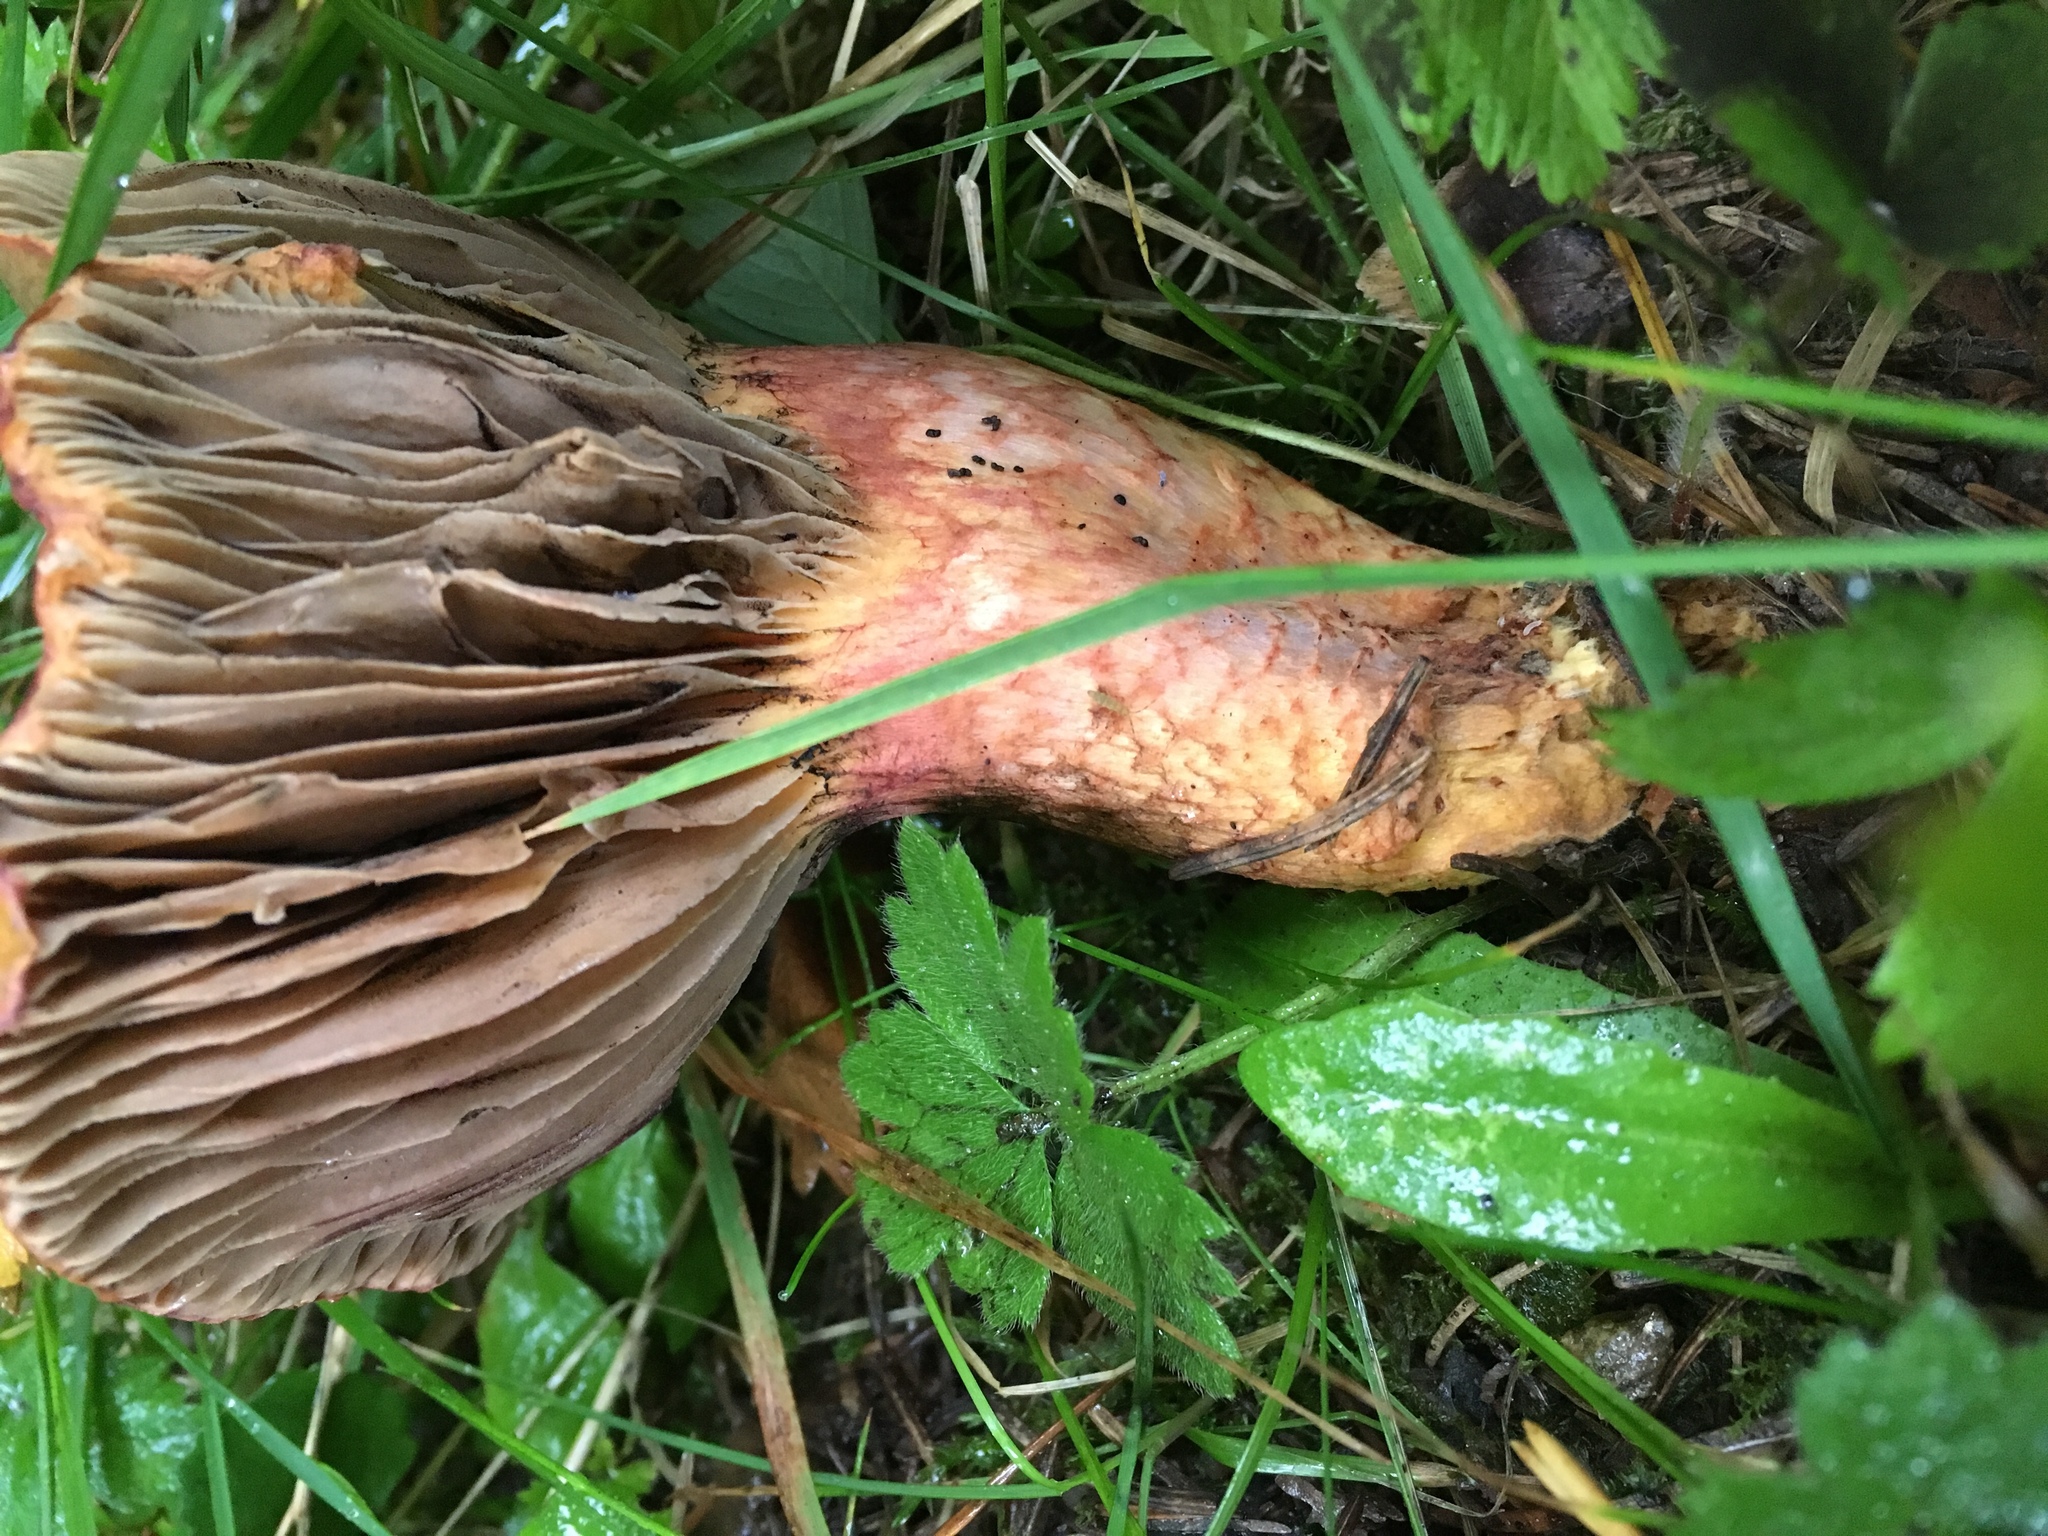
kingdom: Fungi
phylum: Basidiomycota
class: Agaricomycetes
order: Boletales
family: Gomphidiaceae
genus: Chroogomphus
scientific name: Chroogomphus rutilus
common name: Copper spike
